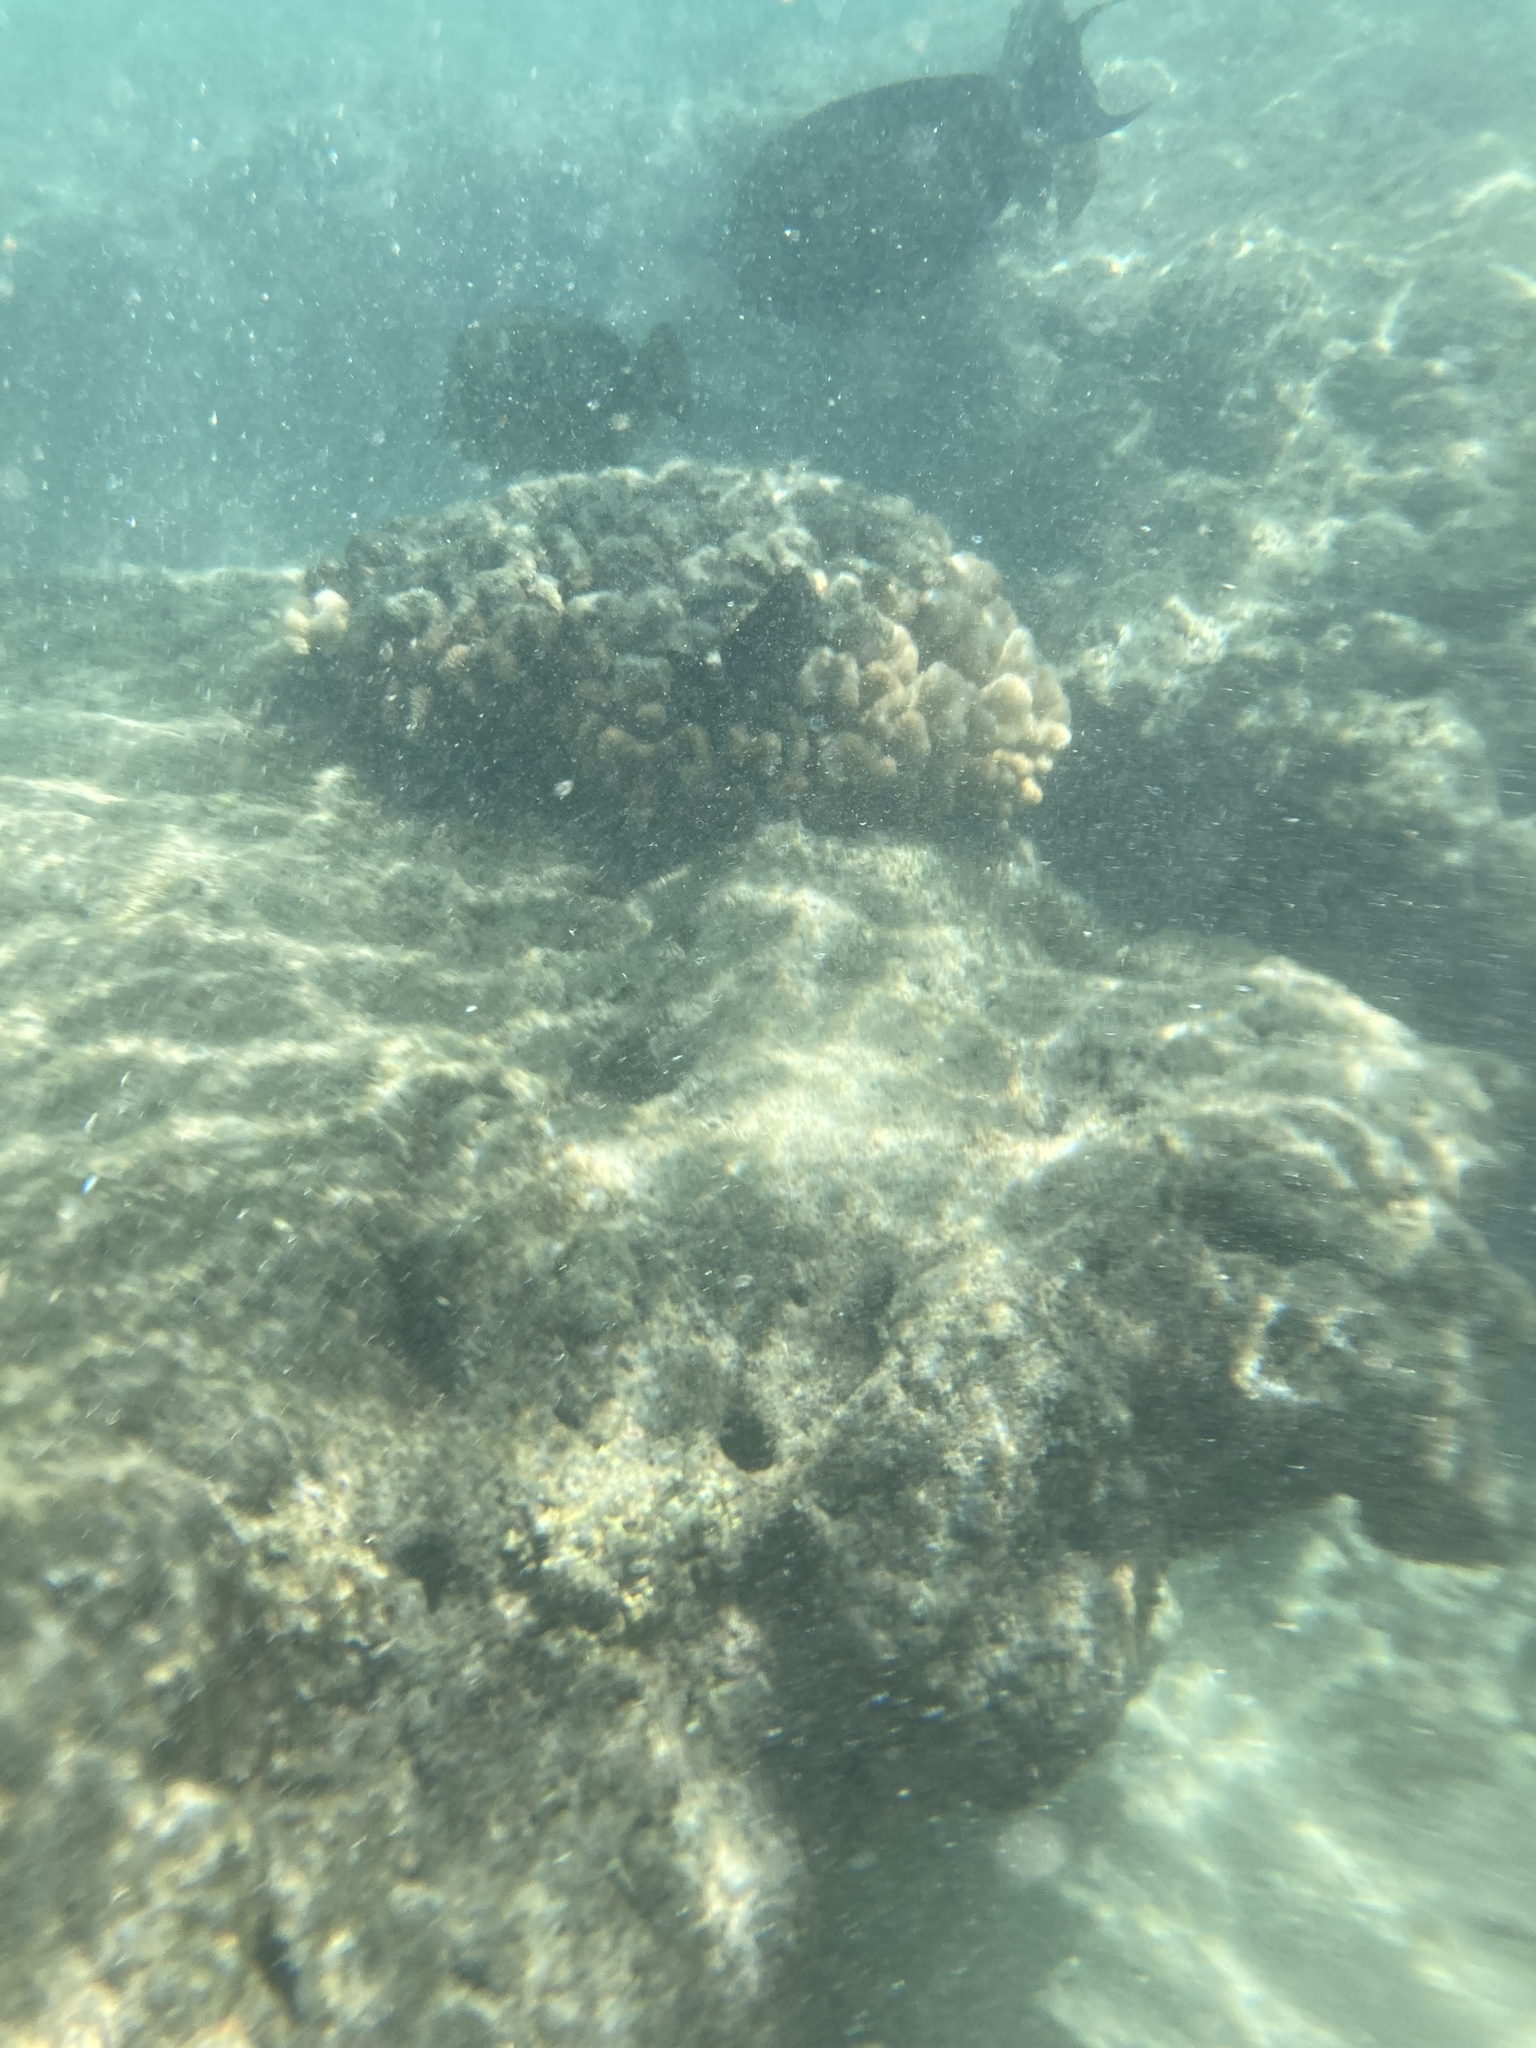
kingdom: Animalia
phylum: Cnidaria
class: Anthozoa
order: Scleractinia
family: Pocilloporidae
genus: Pocillopora
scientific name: Pocillopora meandrina
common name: Cauliflower coral
